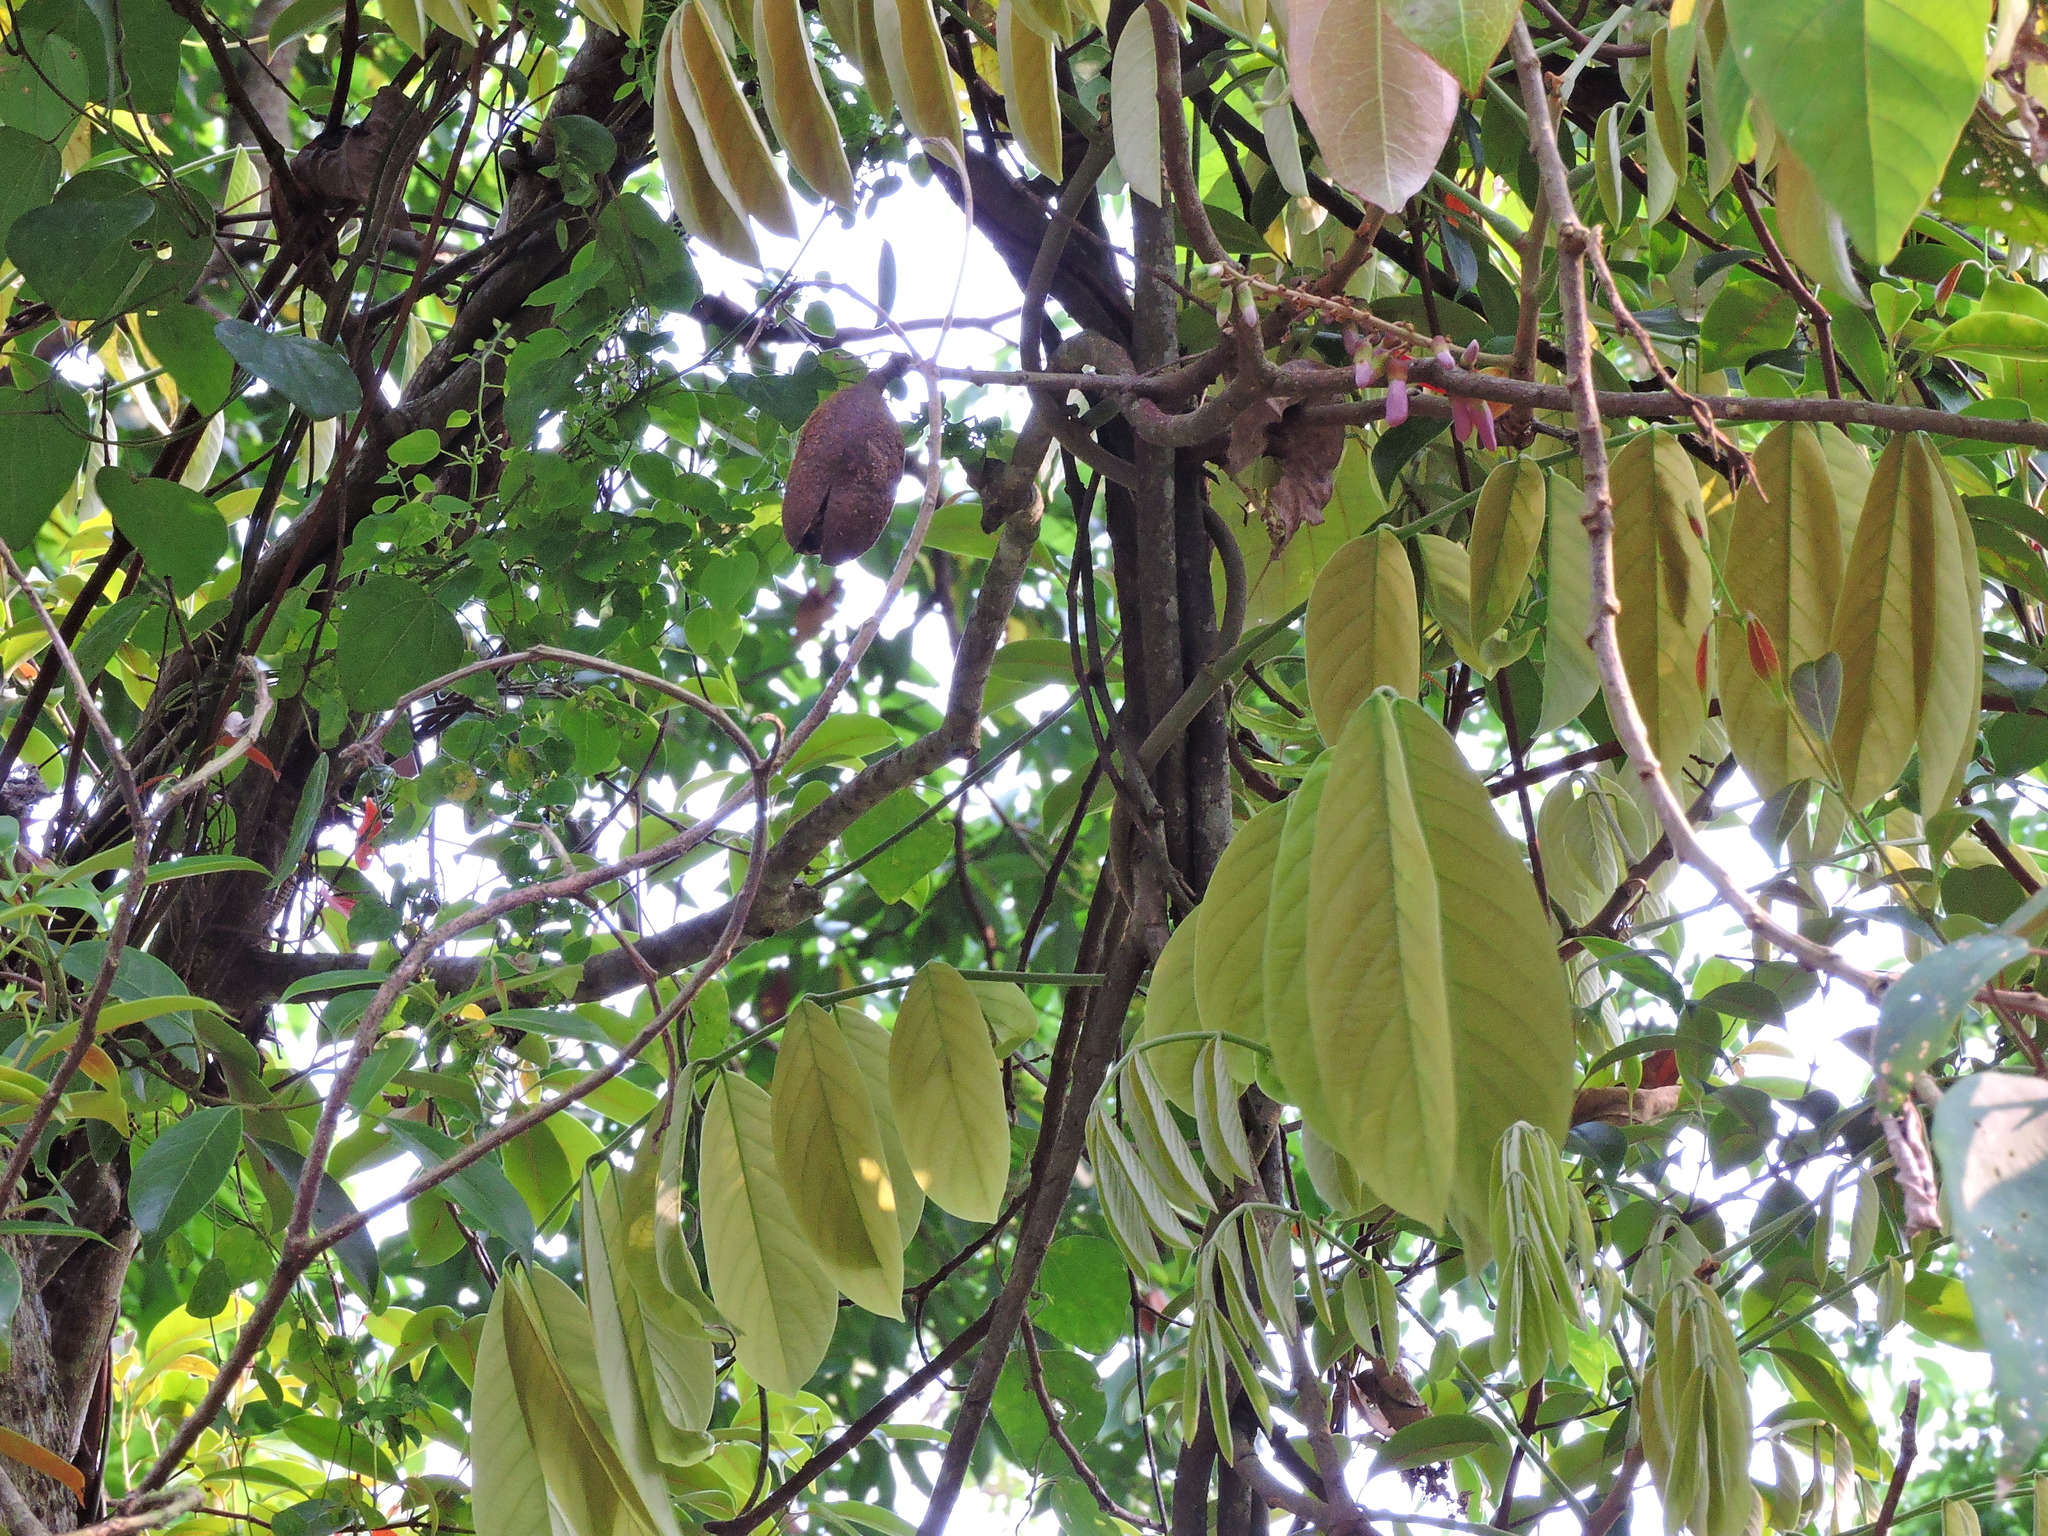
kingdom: Plantae
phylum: Tracheophyta
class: Magnoliopsida
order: Fabales
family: Fabaceae
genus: Millettia
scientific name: Millettia pachycarpa
